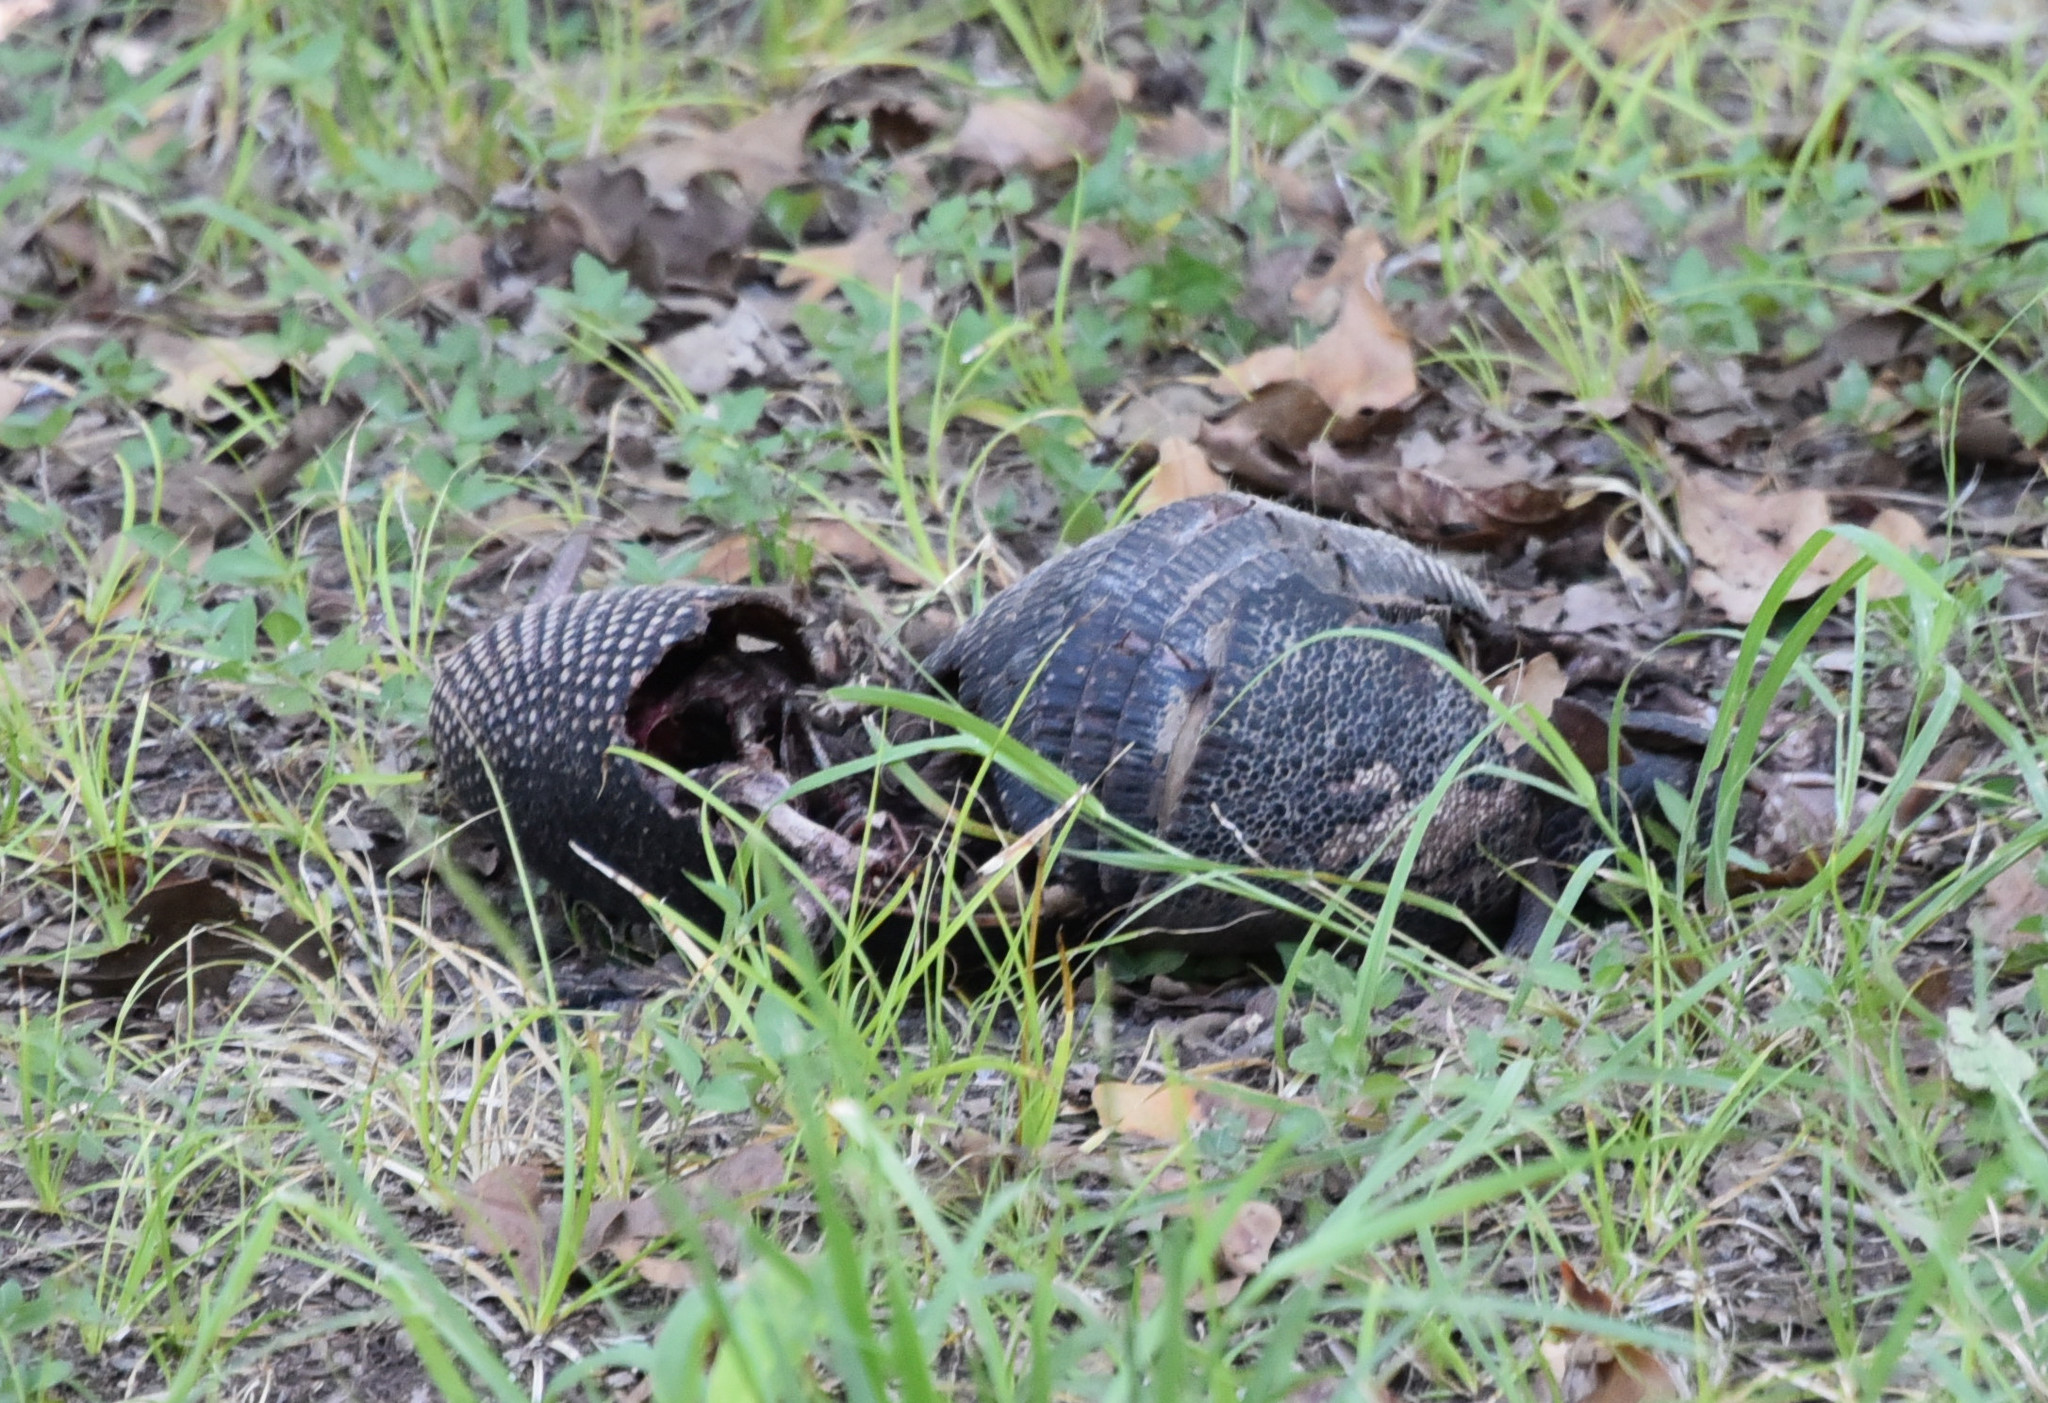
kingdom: Animalia
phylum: Chordata
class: Mammalia
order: Cingulata
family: Dasypodidae
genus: Dasypus
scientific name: Dasypus novemcinctus
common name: Nine-banded armadillo
